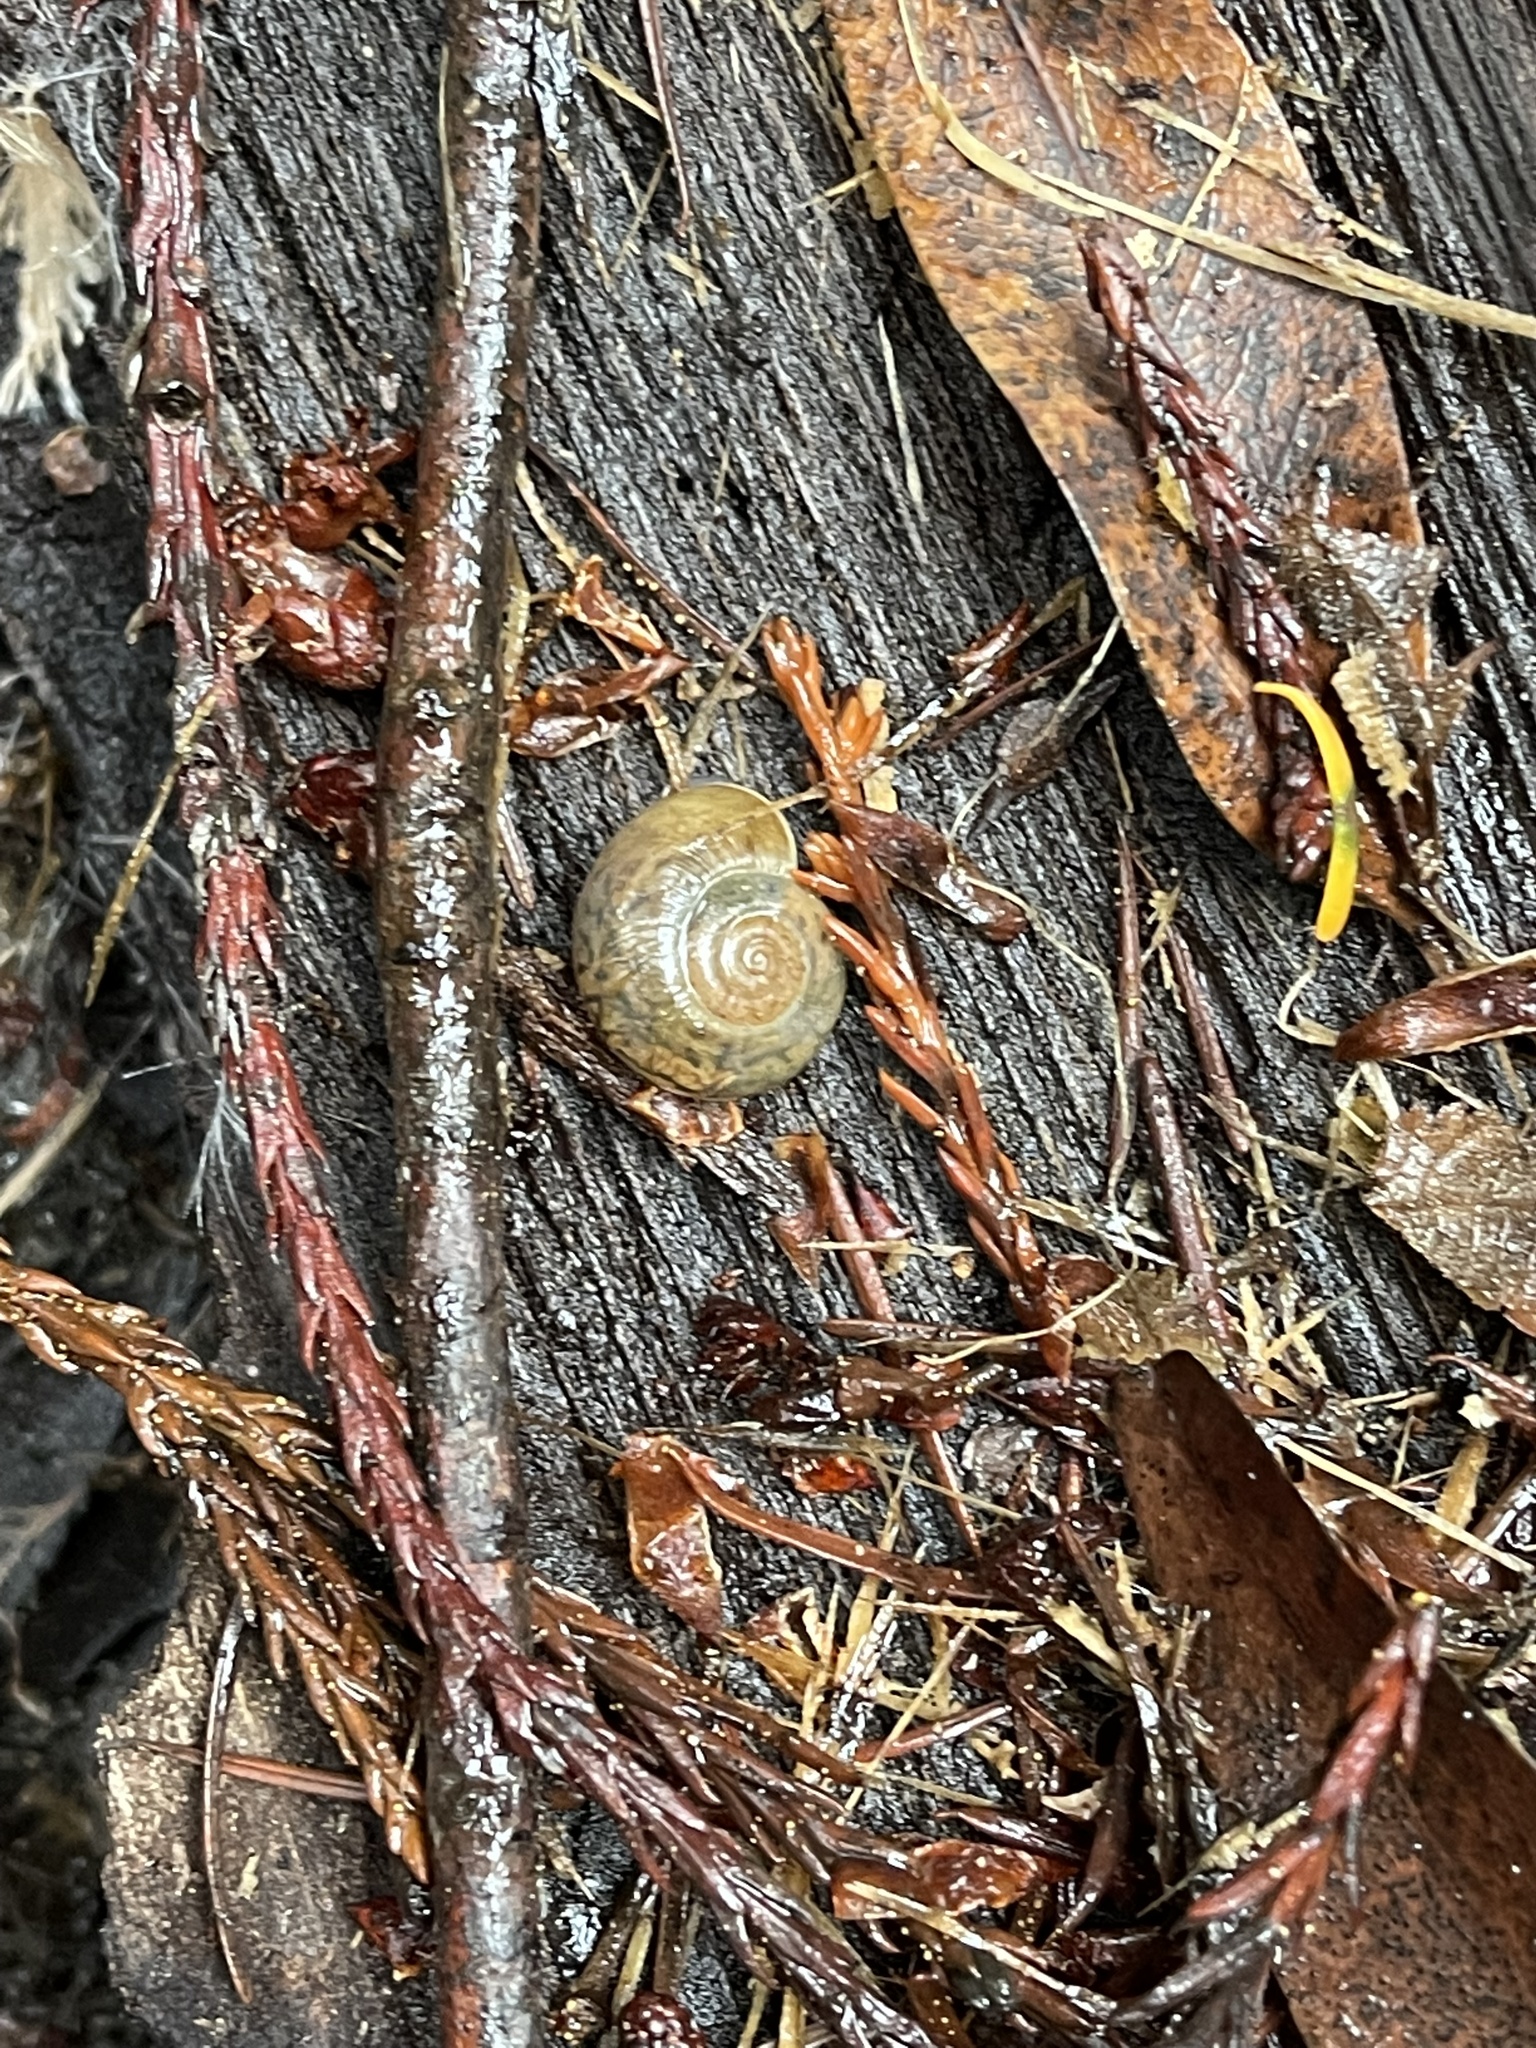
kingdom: Animalia
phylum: Mollusca
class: Gastropoda
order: Stylommatophora
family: Haplotrematidae
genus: Haplotrema
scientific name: Haplotrema minimum
